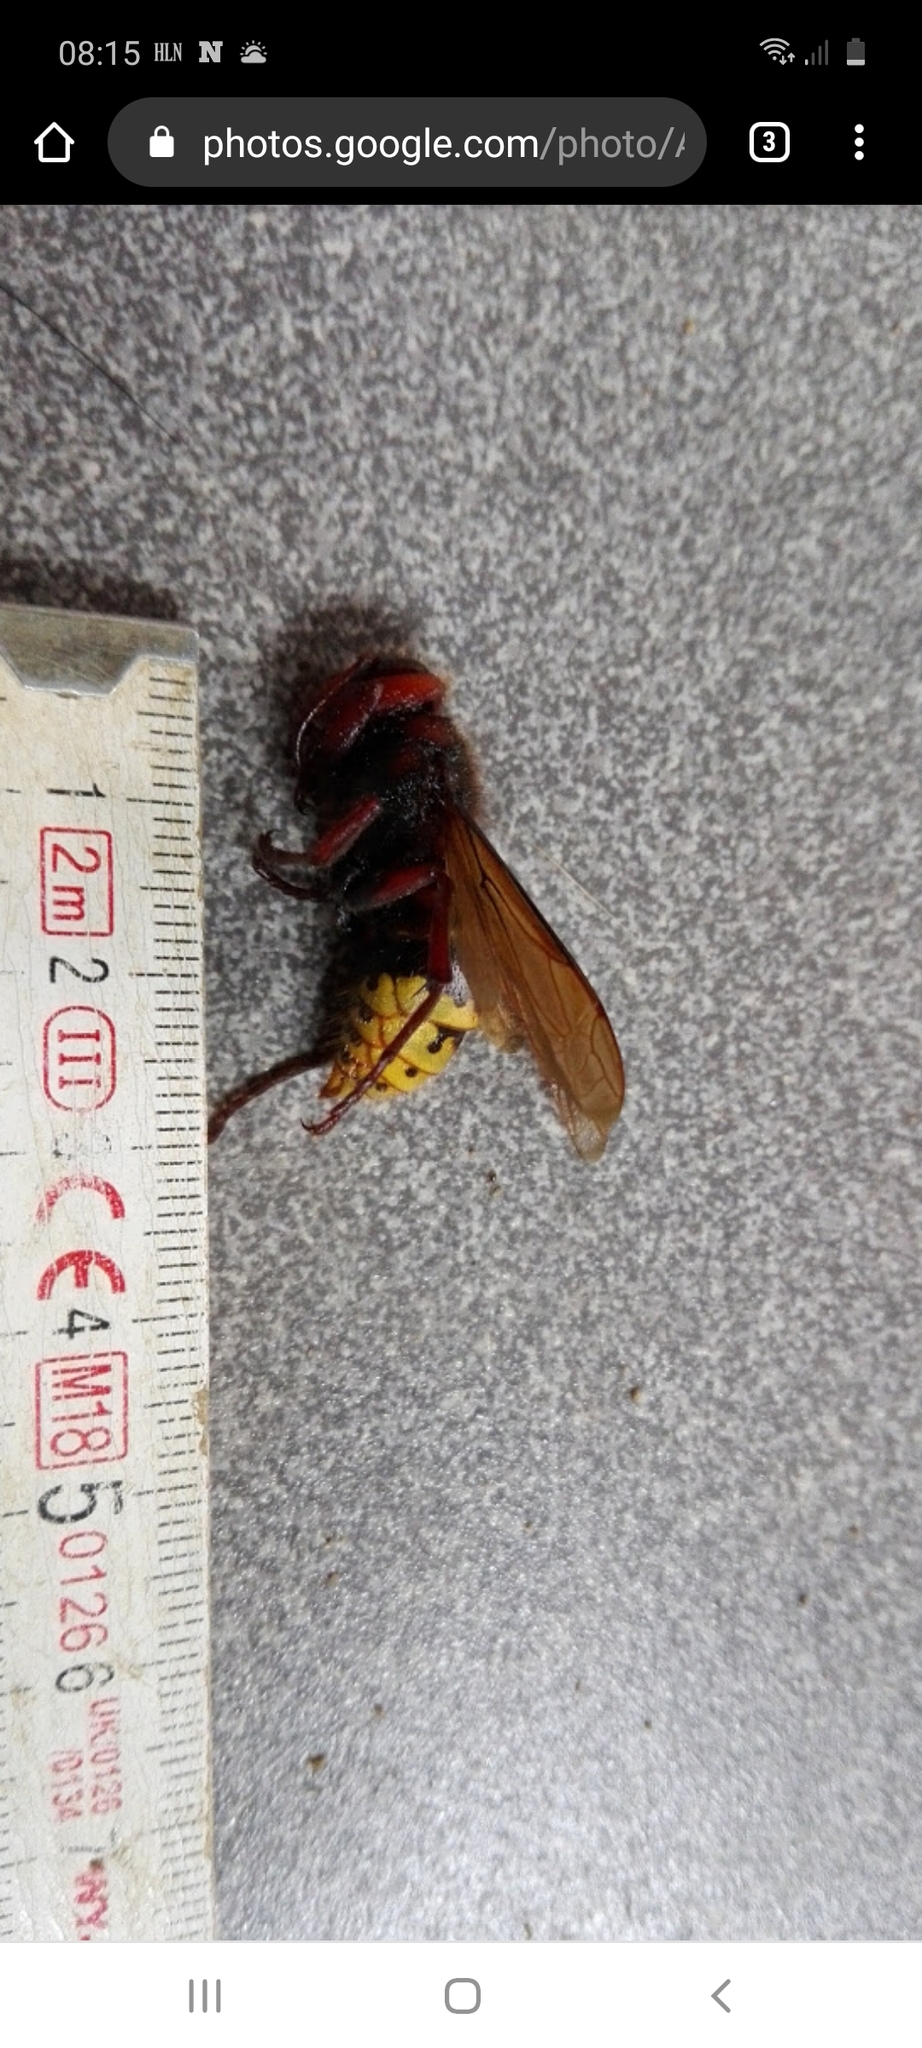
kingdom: Animalia
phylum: Arthropoda
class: Insecta
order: Hymenoptera
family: Vespidae
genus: Vespa
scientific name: Vespa crabro
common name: Hornet
